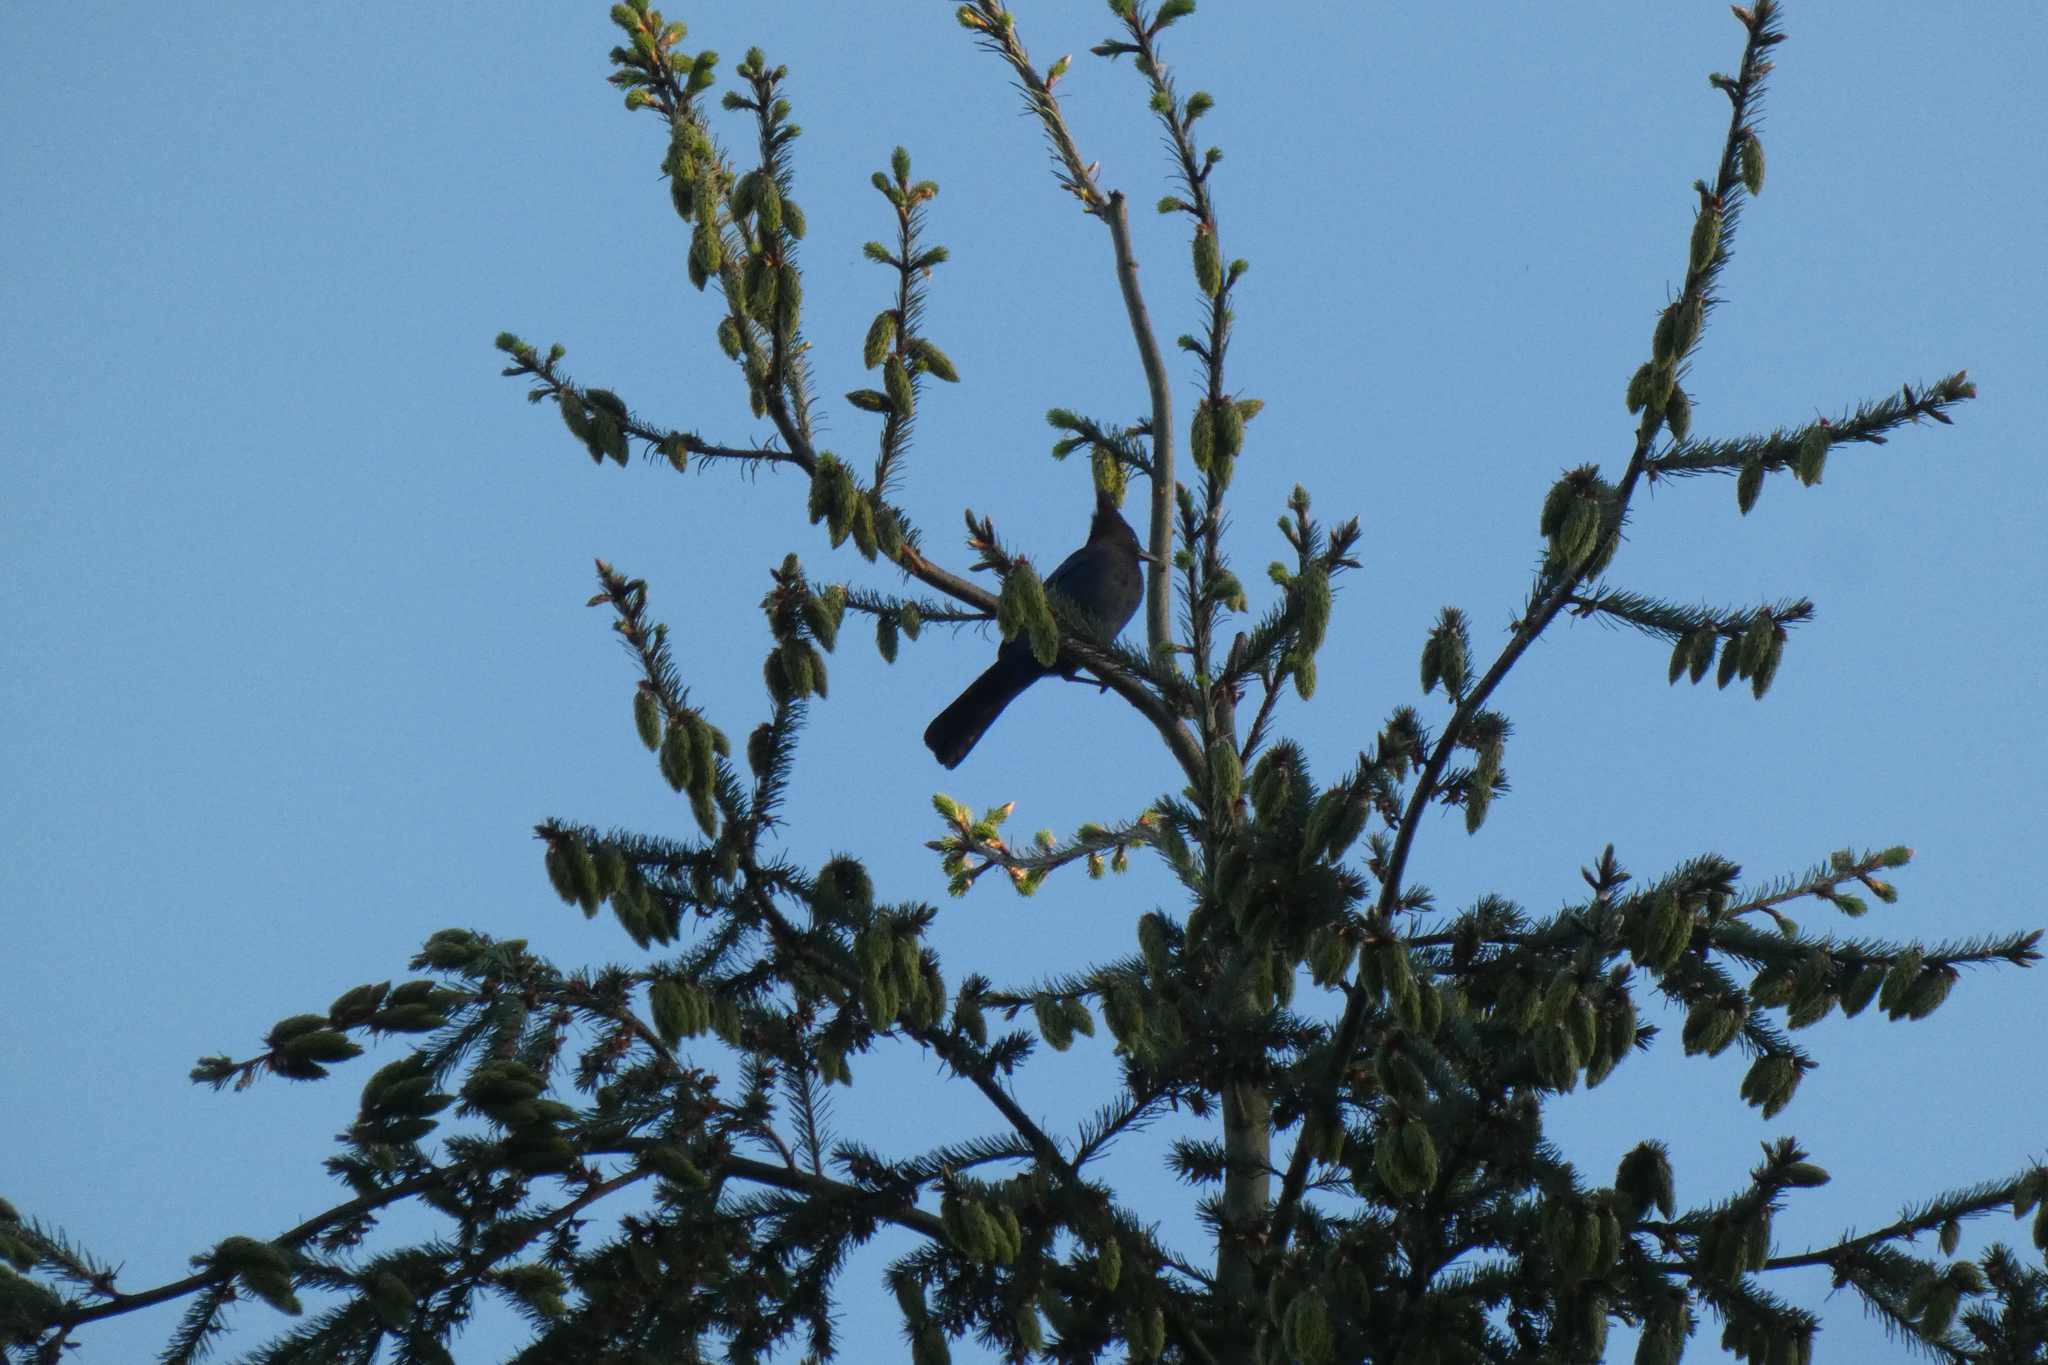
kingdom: Animalia
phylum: Chordata
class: Aves
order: Passeriformes
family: Corvidae
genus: Cyanocitta
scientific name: Cyanocitta stelleri
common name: Steller's jay
